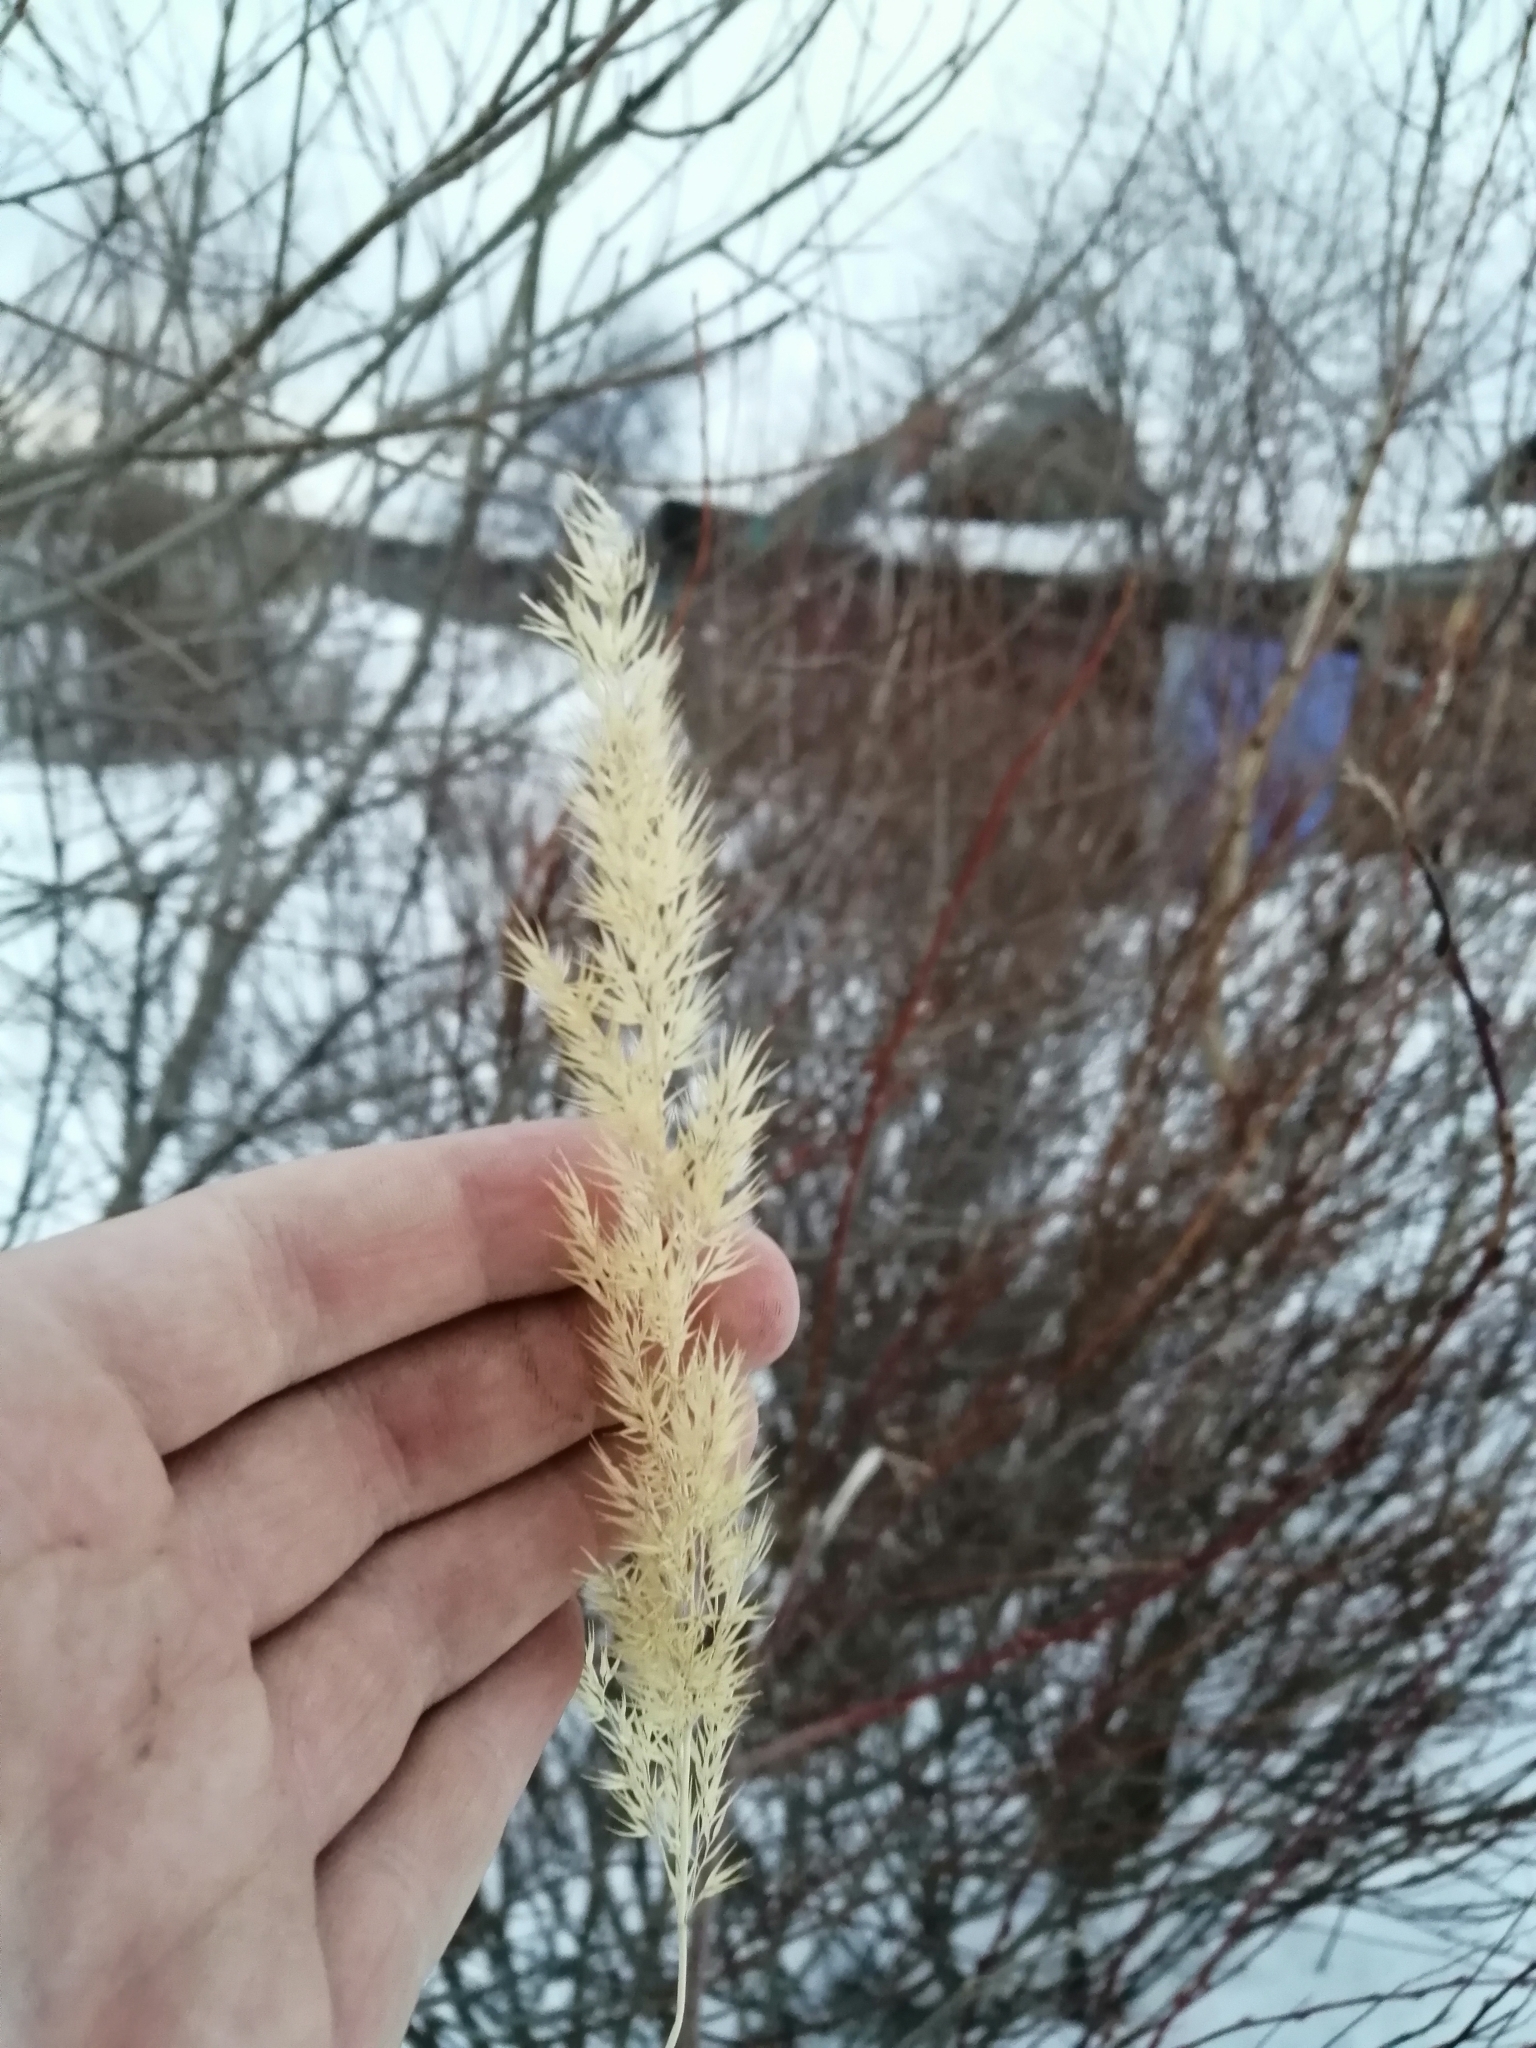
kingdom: Plantae
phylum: Tracheophyta
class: Liliopsida
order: Poales
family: Poaceae
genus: Calamagrostis
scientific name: Calamagrostis epigejos
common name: Wood small-reed
